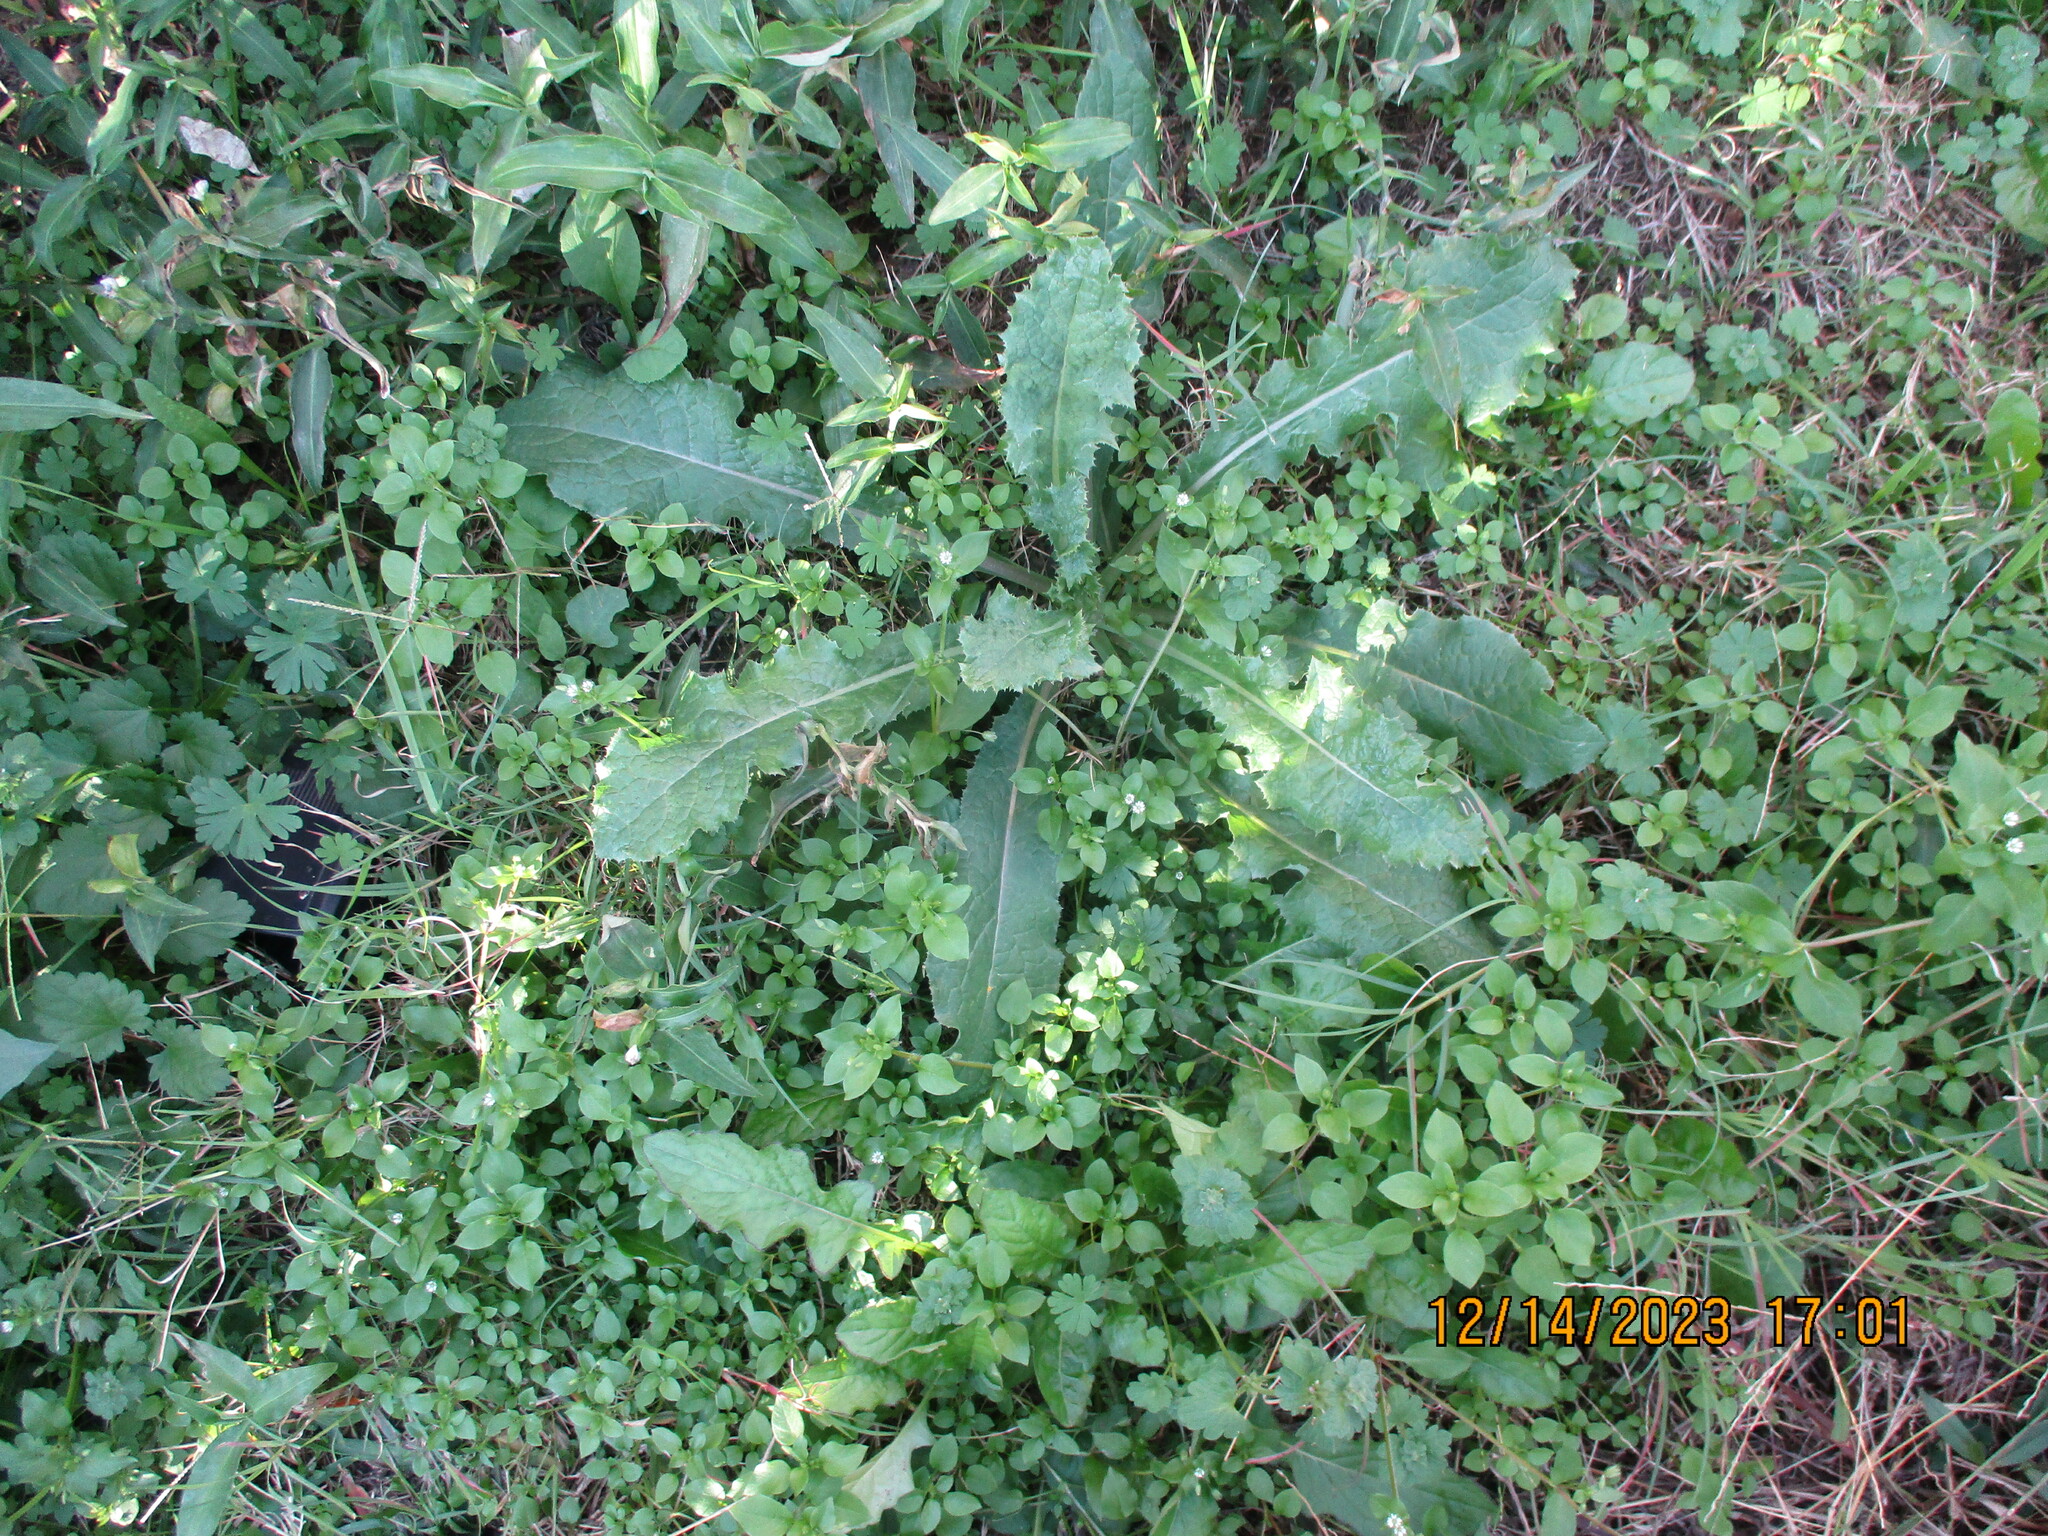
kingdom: Plantae
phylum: Tracheophyta
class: Magnoliopsida
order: Asterales
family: Asteraceae
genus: Sonchus
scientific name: Sonchus asper
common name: Prickly sow-thistle
